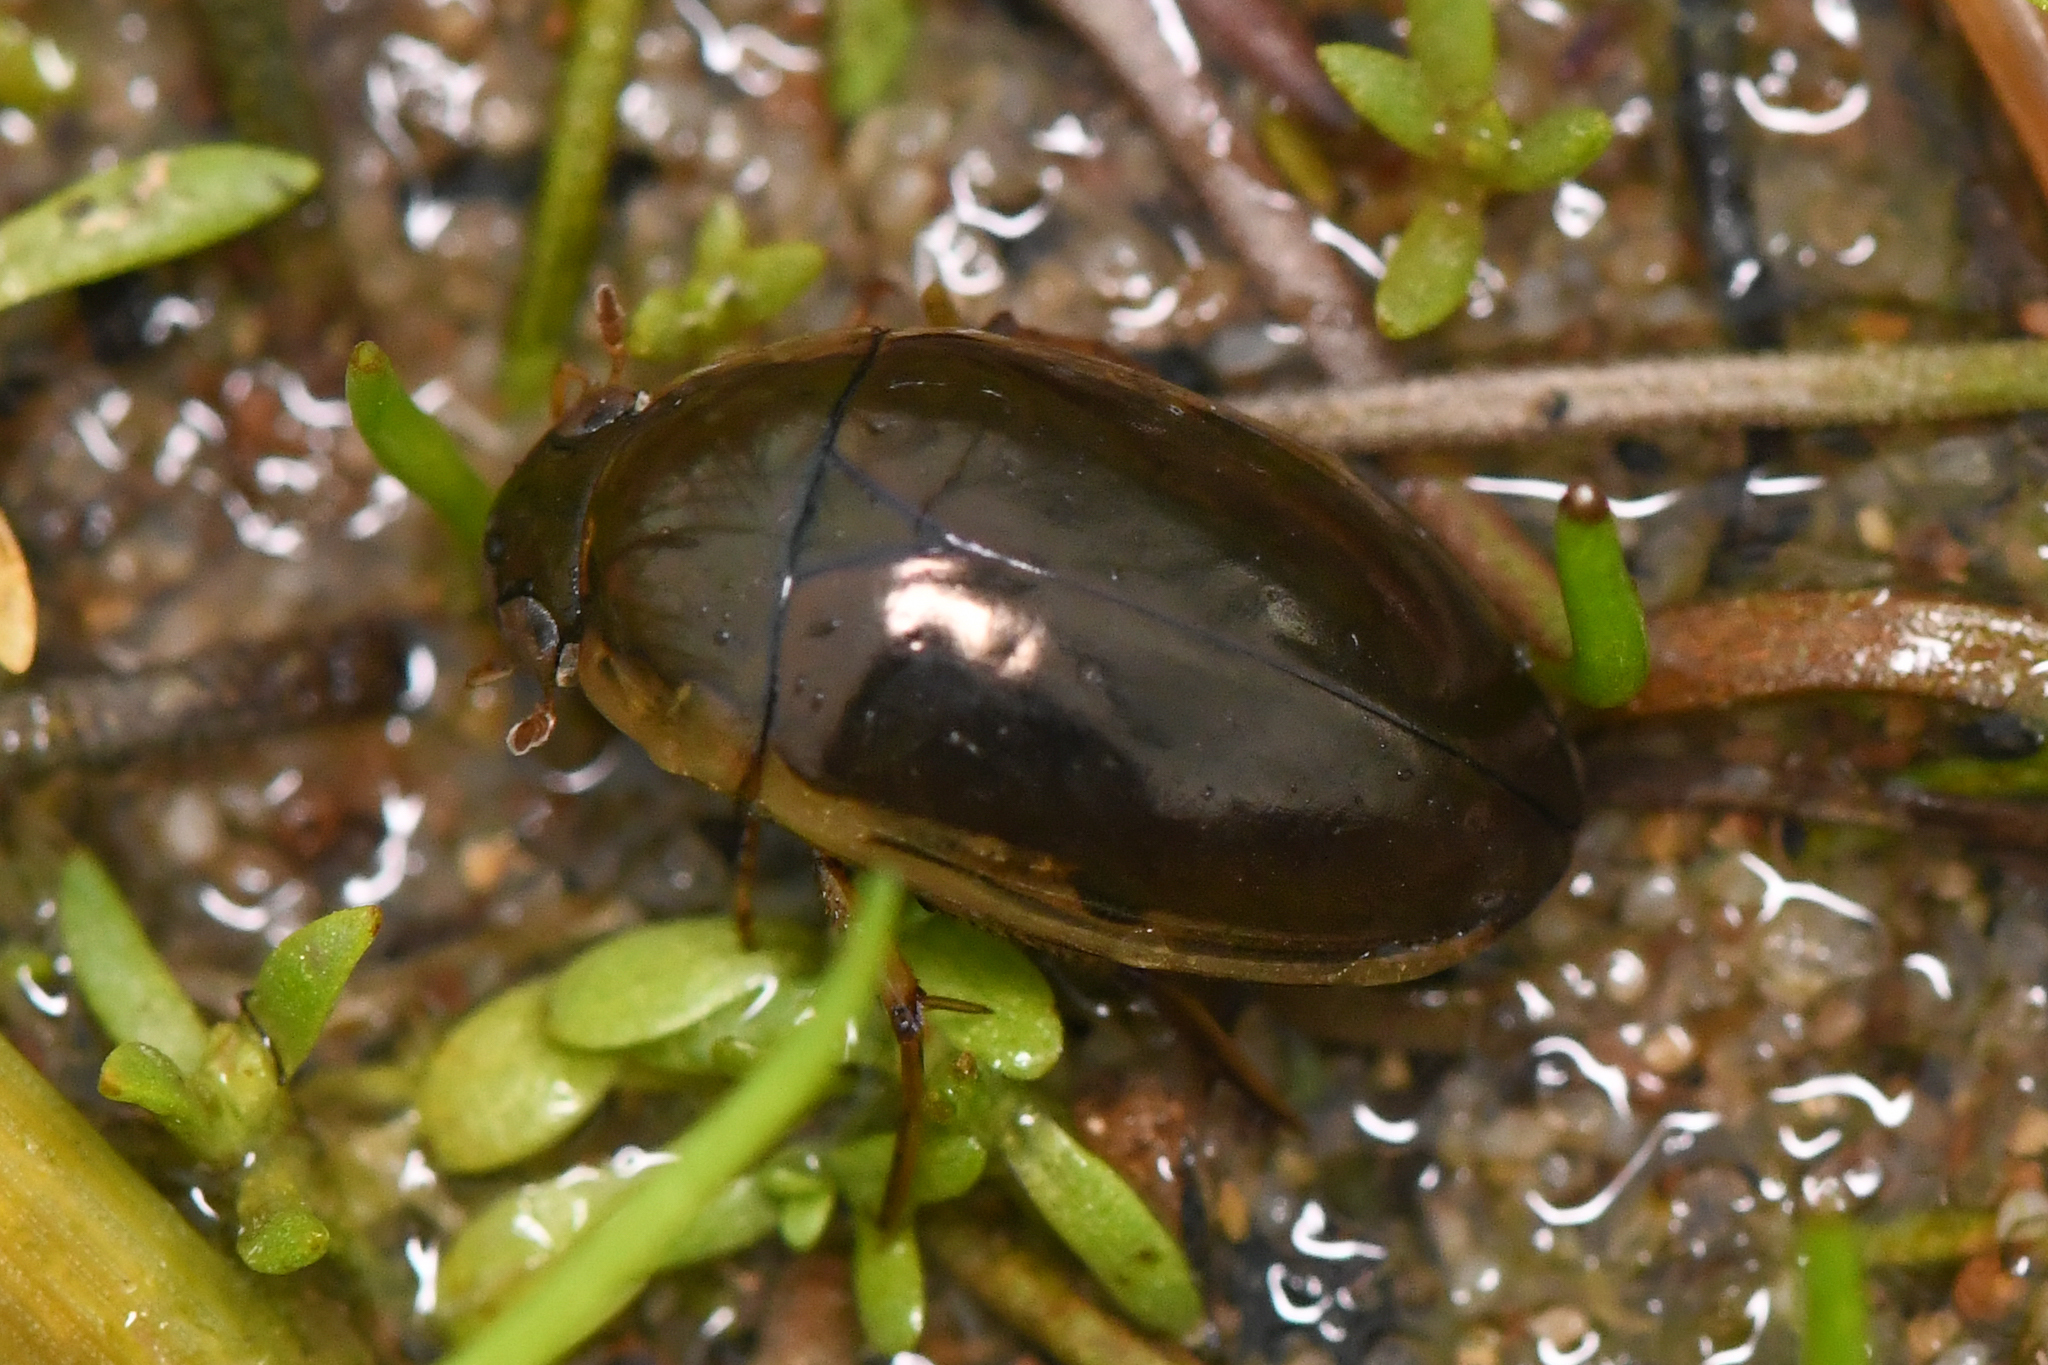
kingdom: Animalia
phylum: Arthropoda
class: Insecta
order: Coleoptera
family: Hydrophilidae
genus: Tropisternus
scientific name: Tropisternus lateralis
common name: Lateral-banded water scavenger beetle
